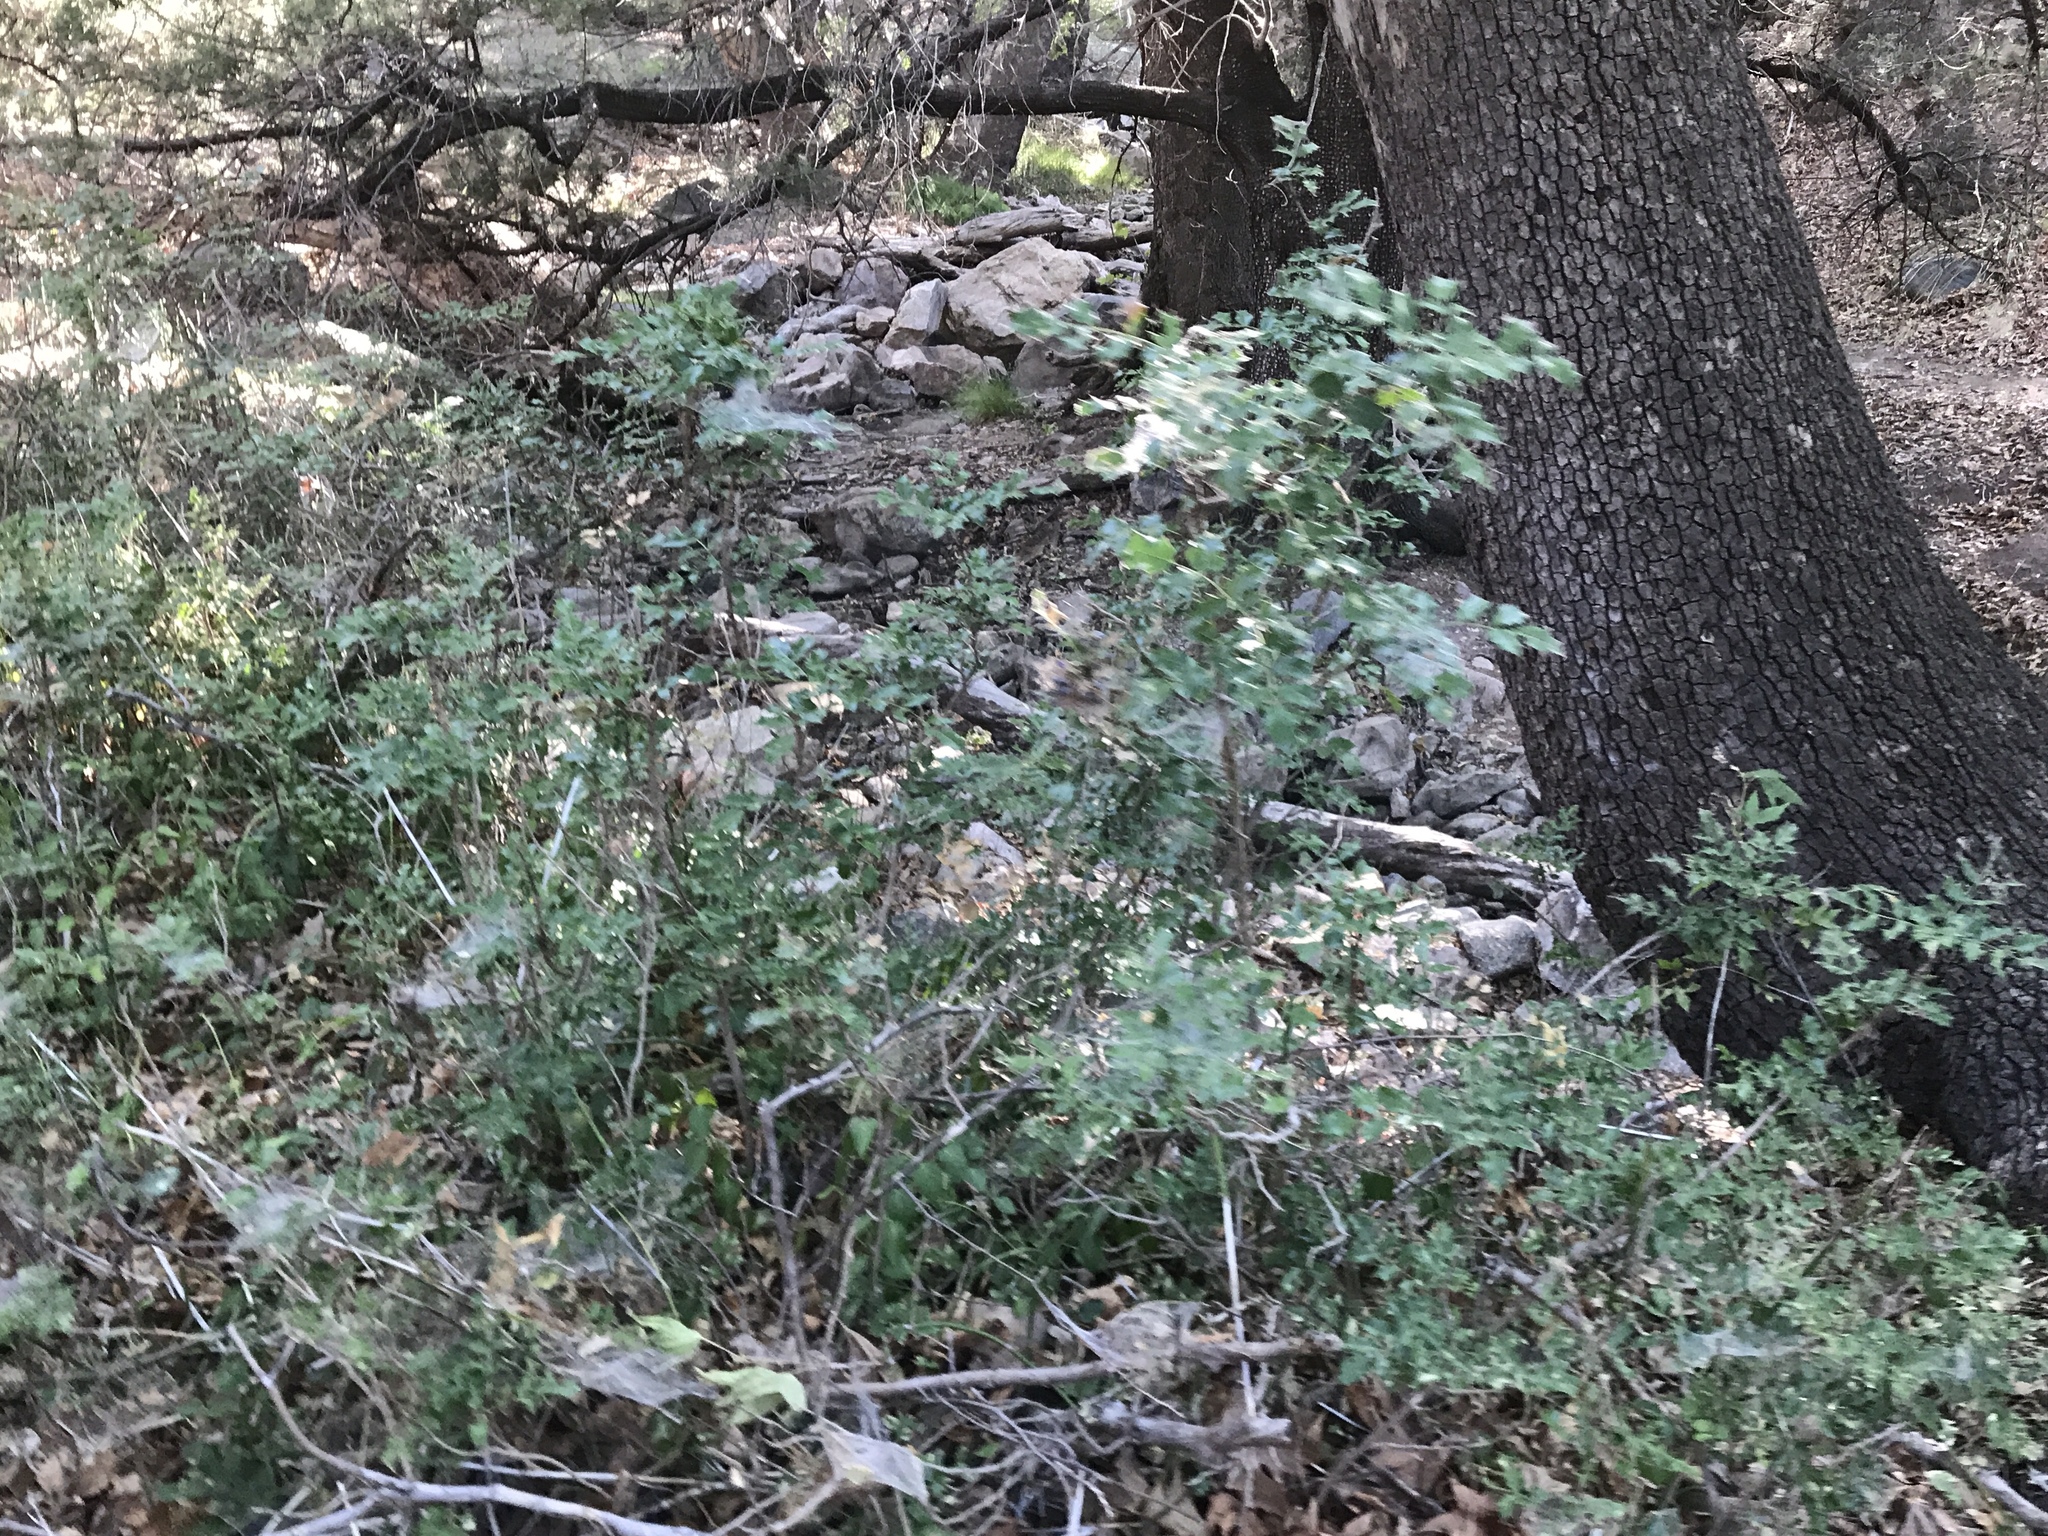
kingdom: Plantae
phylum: Tracheophyta
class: Magnoliopsida
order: Ranunculales
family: Berberidaceae
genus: Mahonia
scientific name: Mahonia wilcoxii
